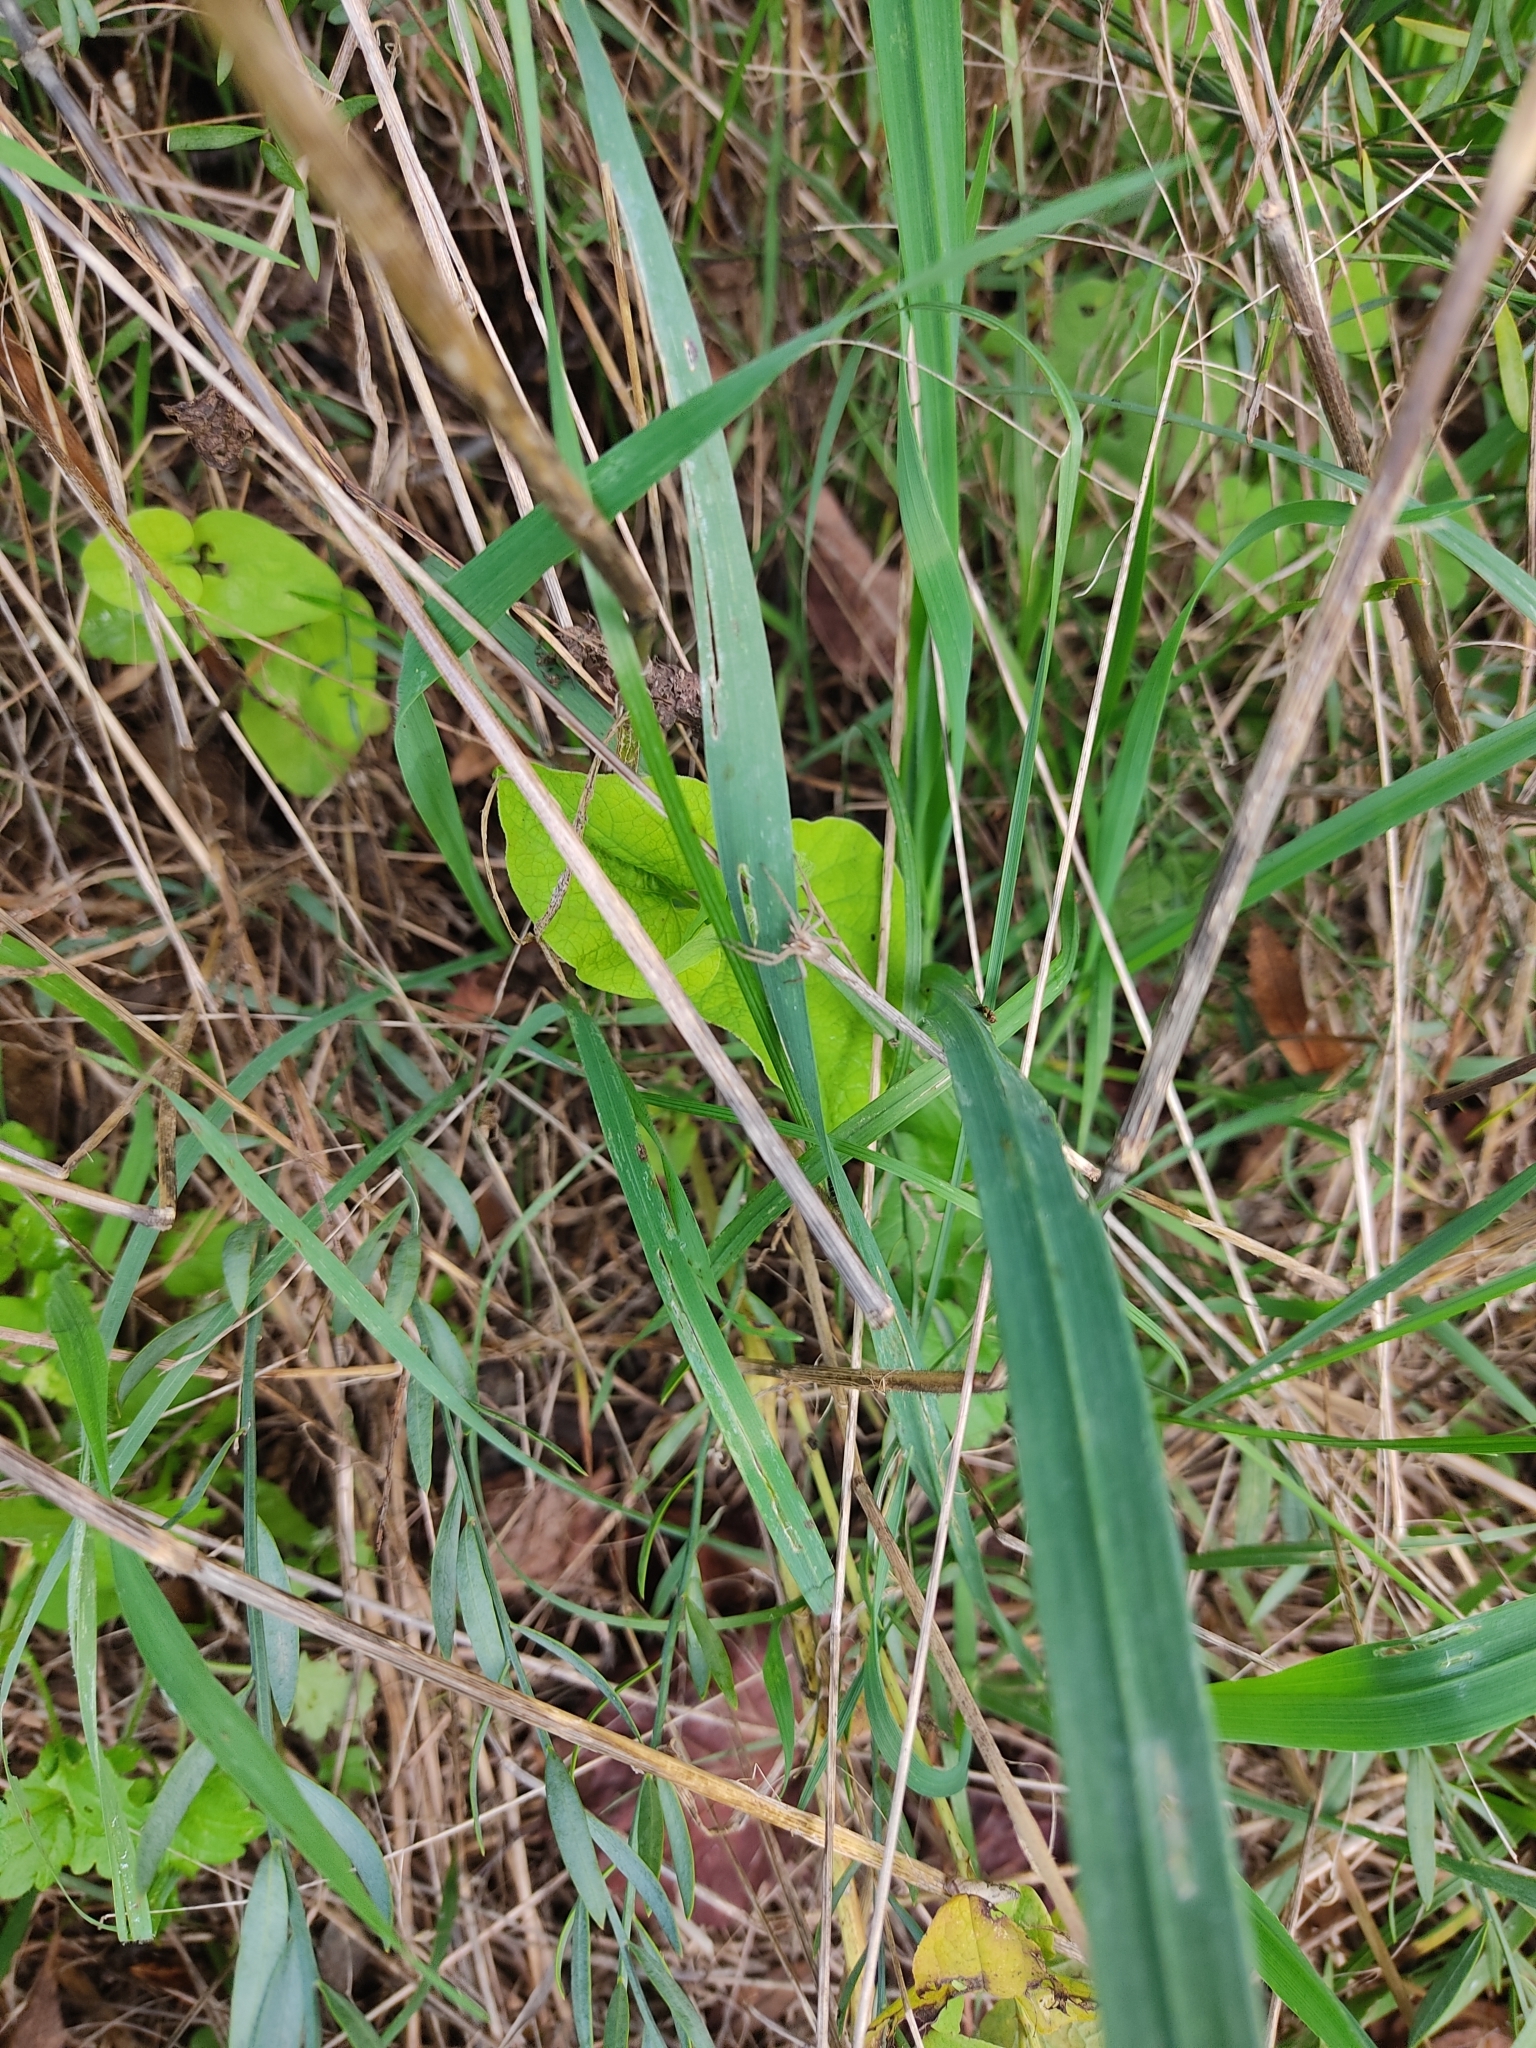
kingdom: Animalia
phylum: Arthropoda
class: Arachnida
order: Araneae
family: Pisauridae
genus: Pisaura
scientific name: Pisaura
